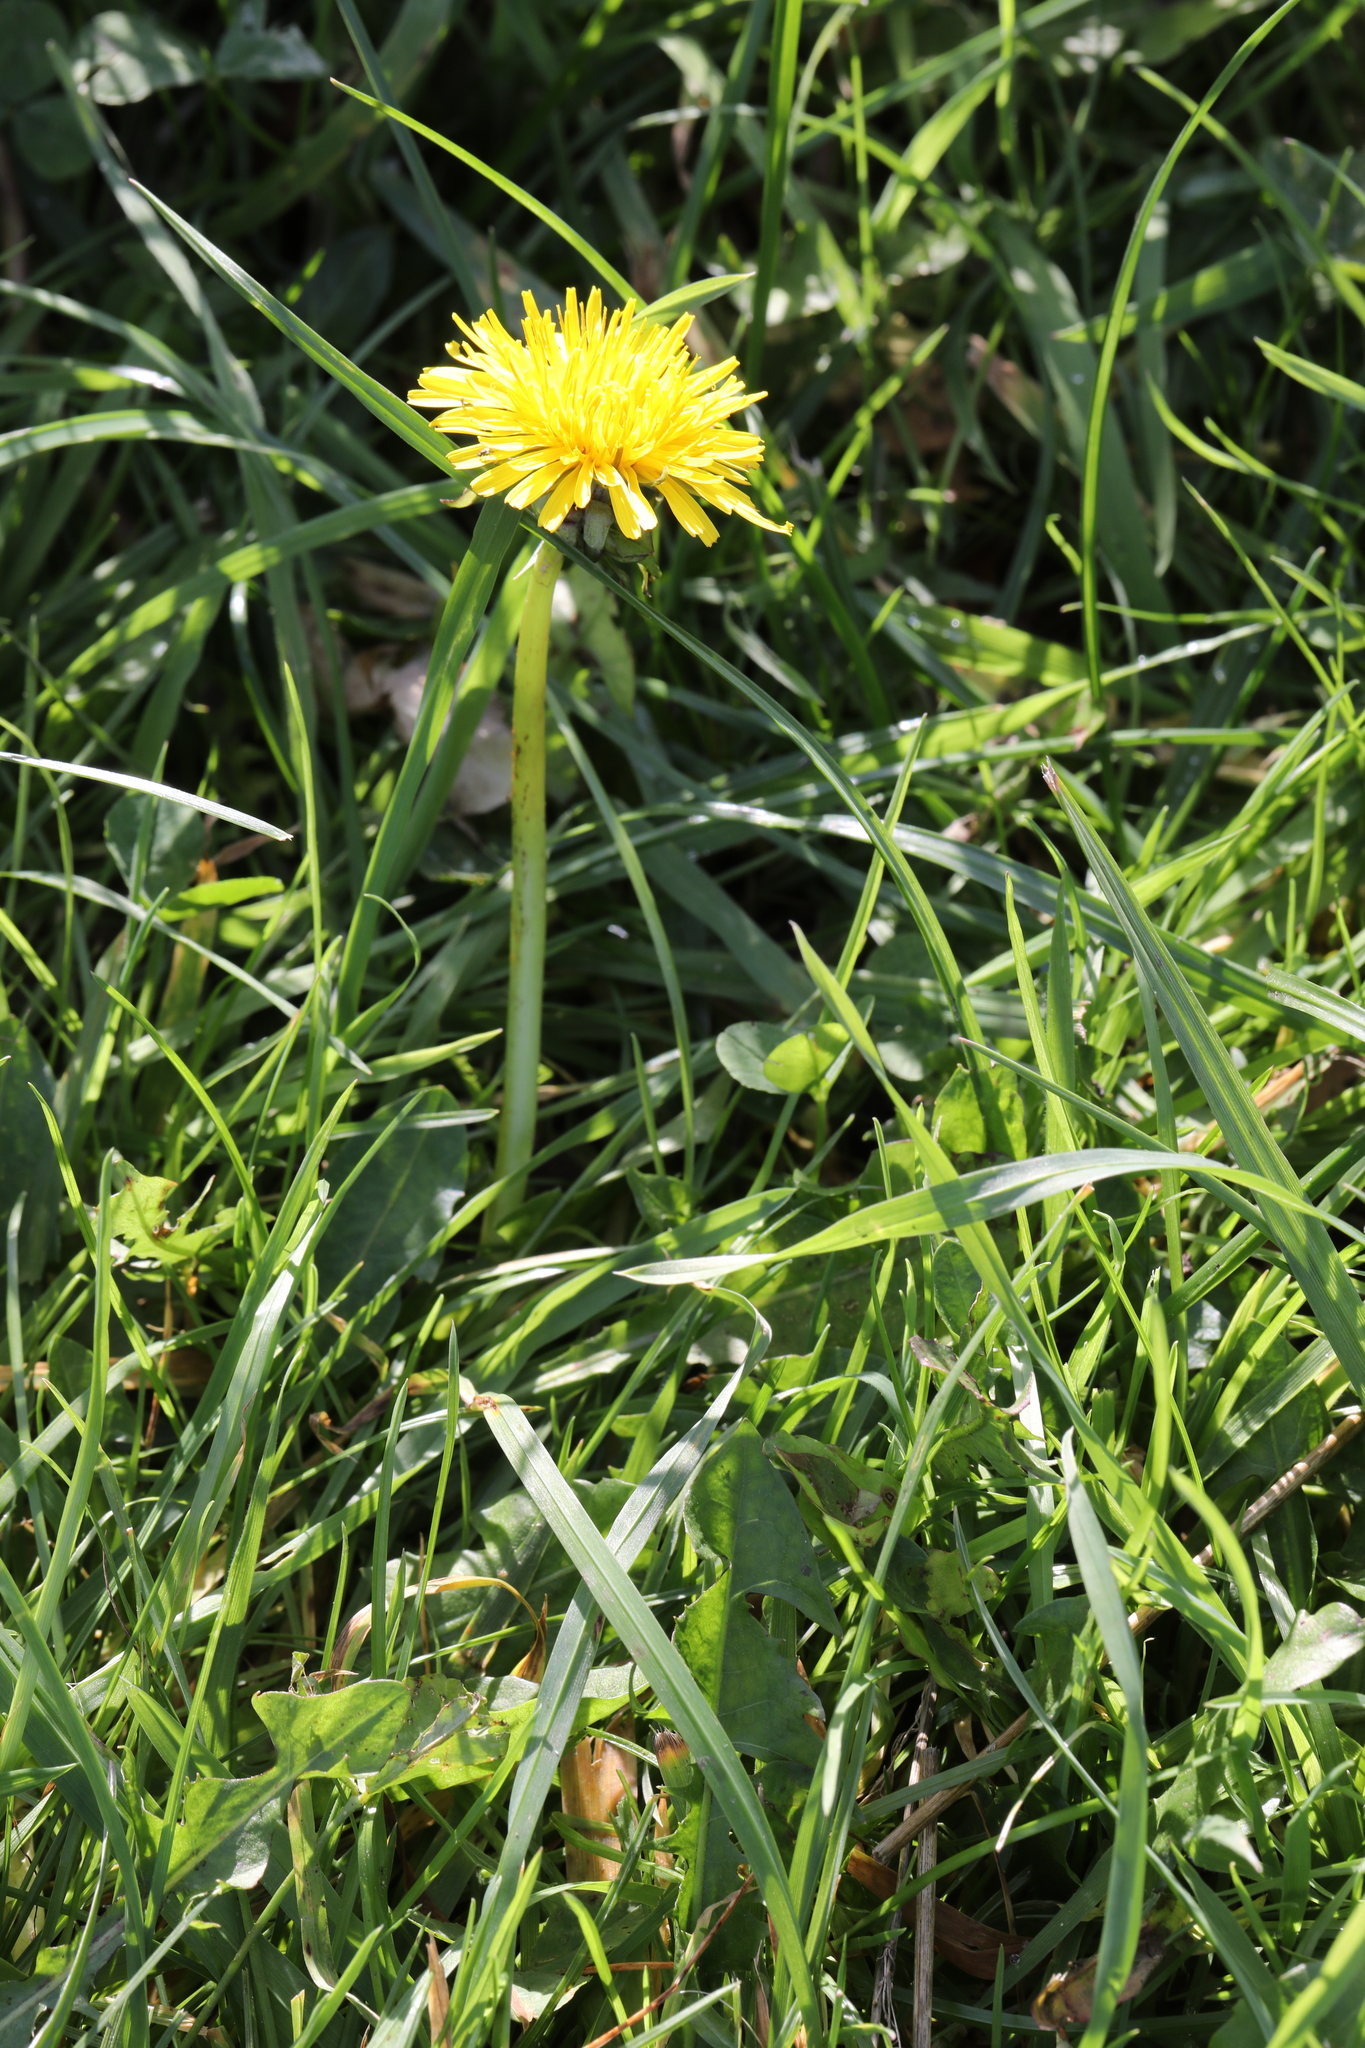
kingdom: Plantae
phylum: Tracheophyta
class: Magnoliopsida
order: Asterales
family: Asteraceae
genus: Taraxacum
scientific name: Taraxacum officinale
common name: Common dandelion
